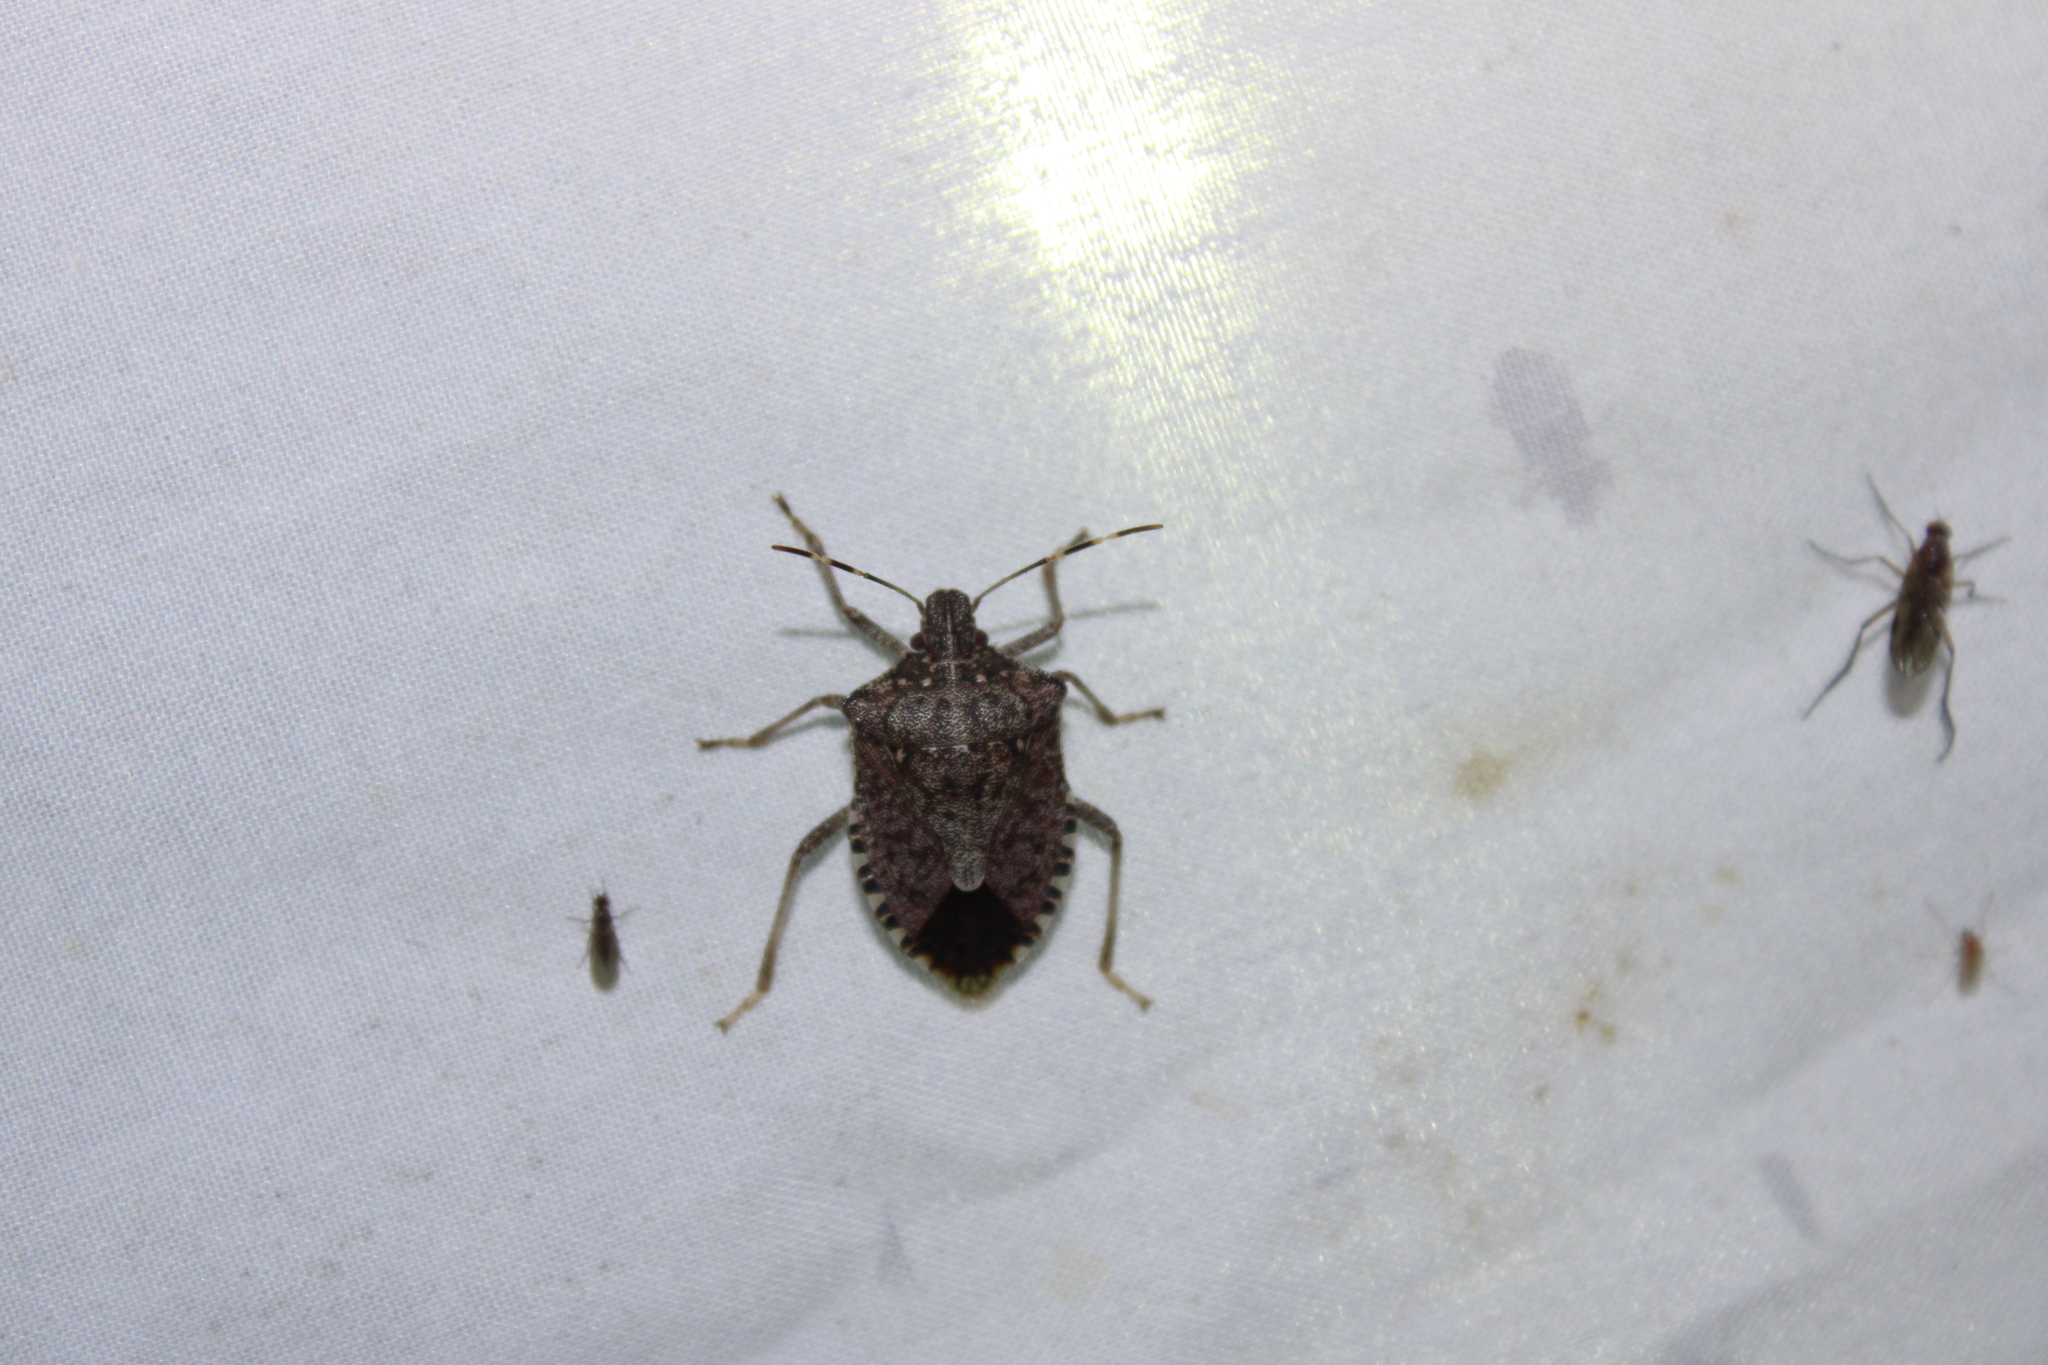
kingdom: Animalia
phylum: Arthropoda
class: Insecta
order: Hemiptera
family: Pentatomidae
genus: Halyomorpha
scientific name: Halyomorpha halys
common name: Brown marmorated stink bug
